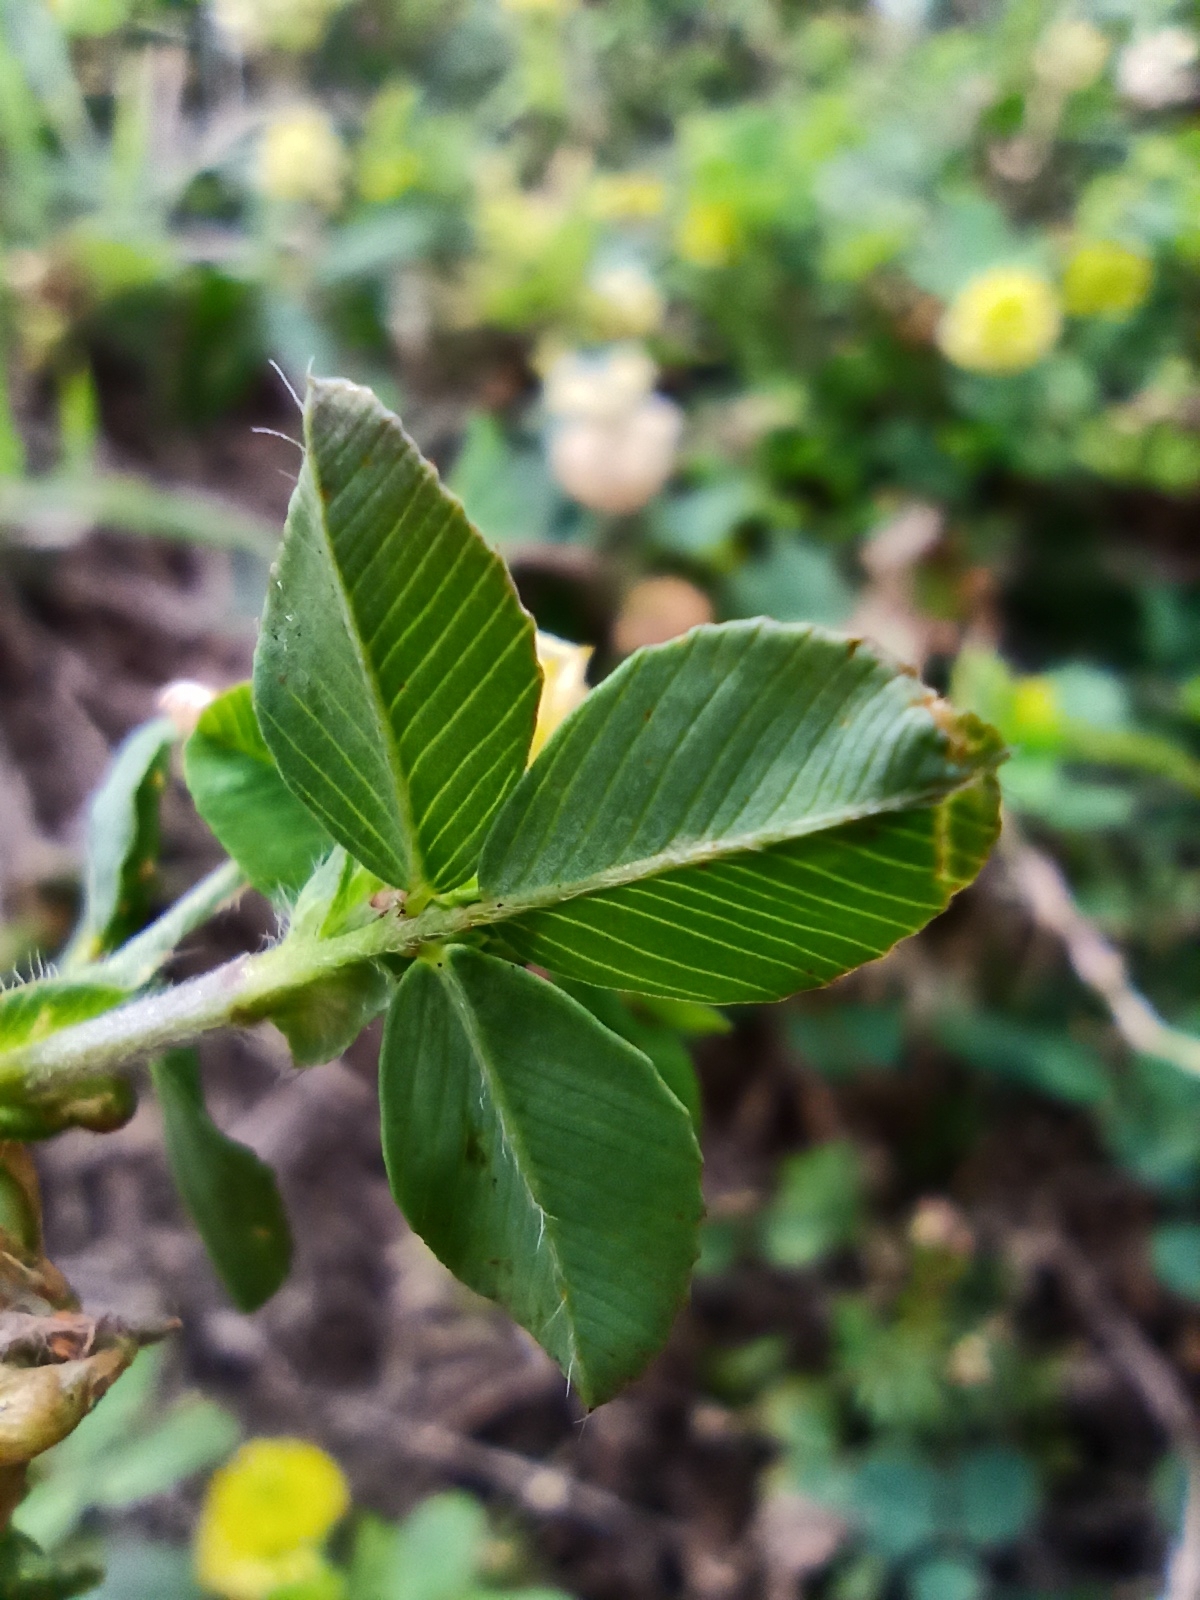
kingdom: Plantae
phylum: Tracheophyta
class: Magnoliopsida
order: Fabales
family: Fabaceae
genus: Trifolium
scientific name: Trifolium campestre
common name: Field clover
